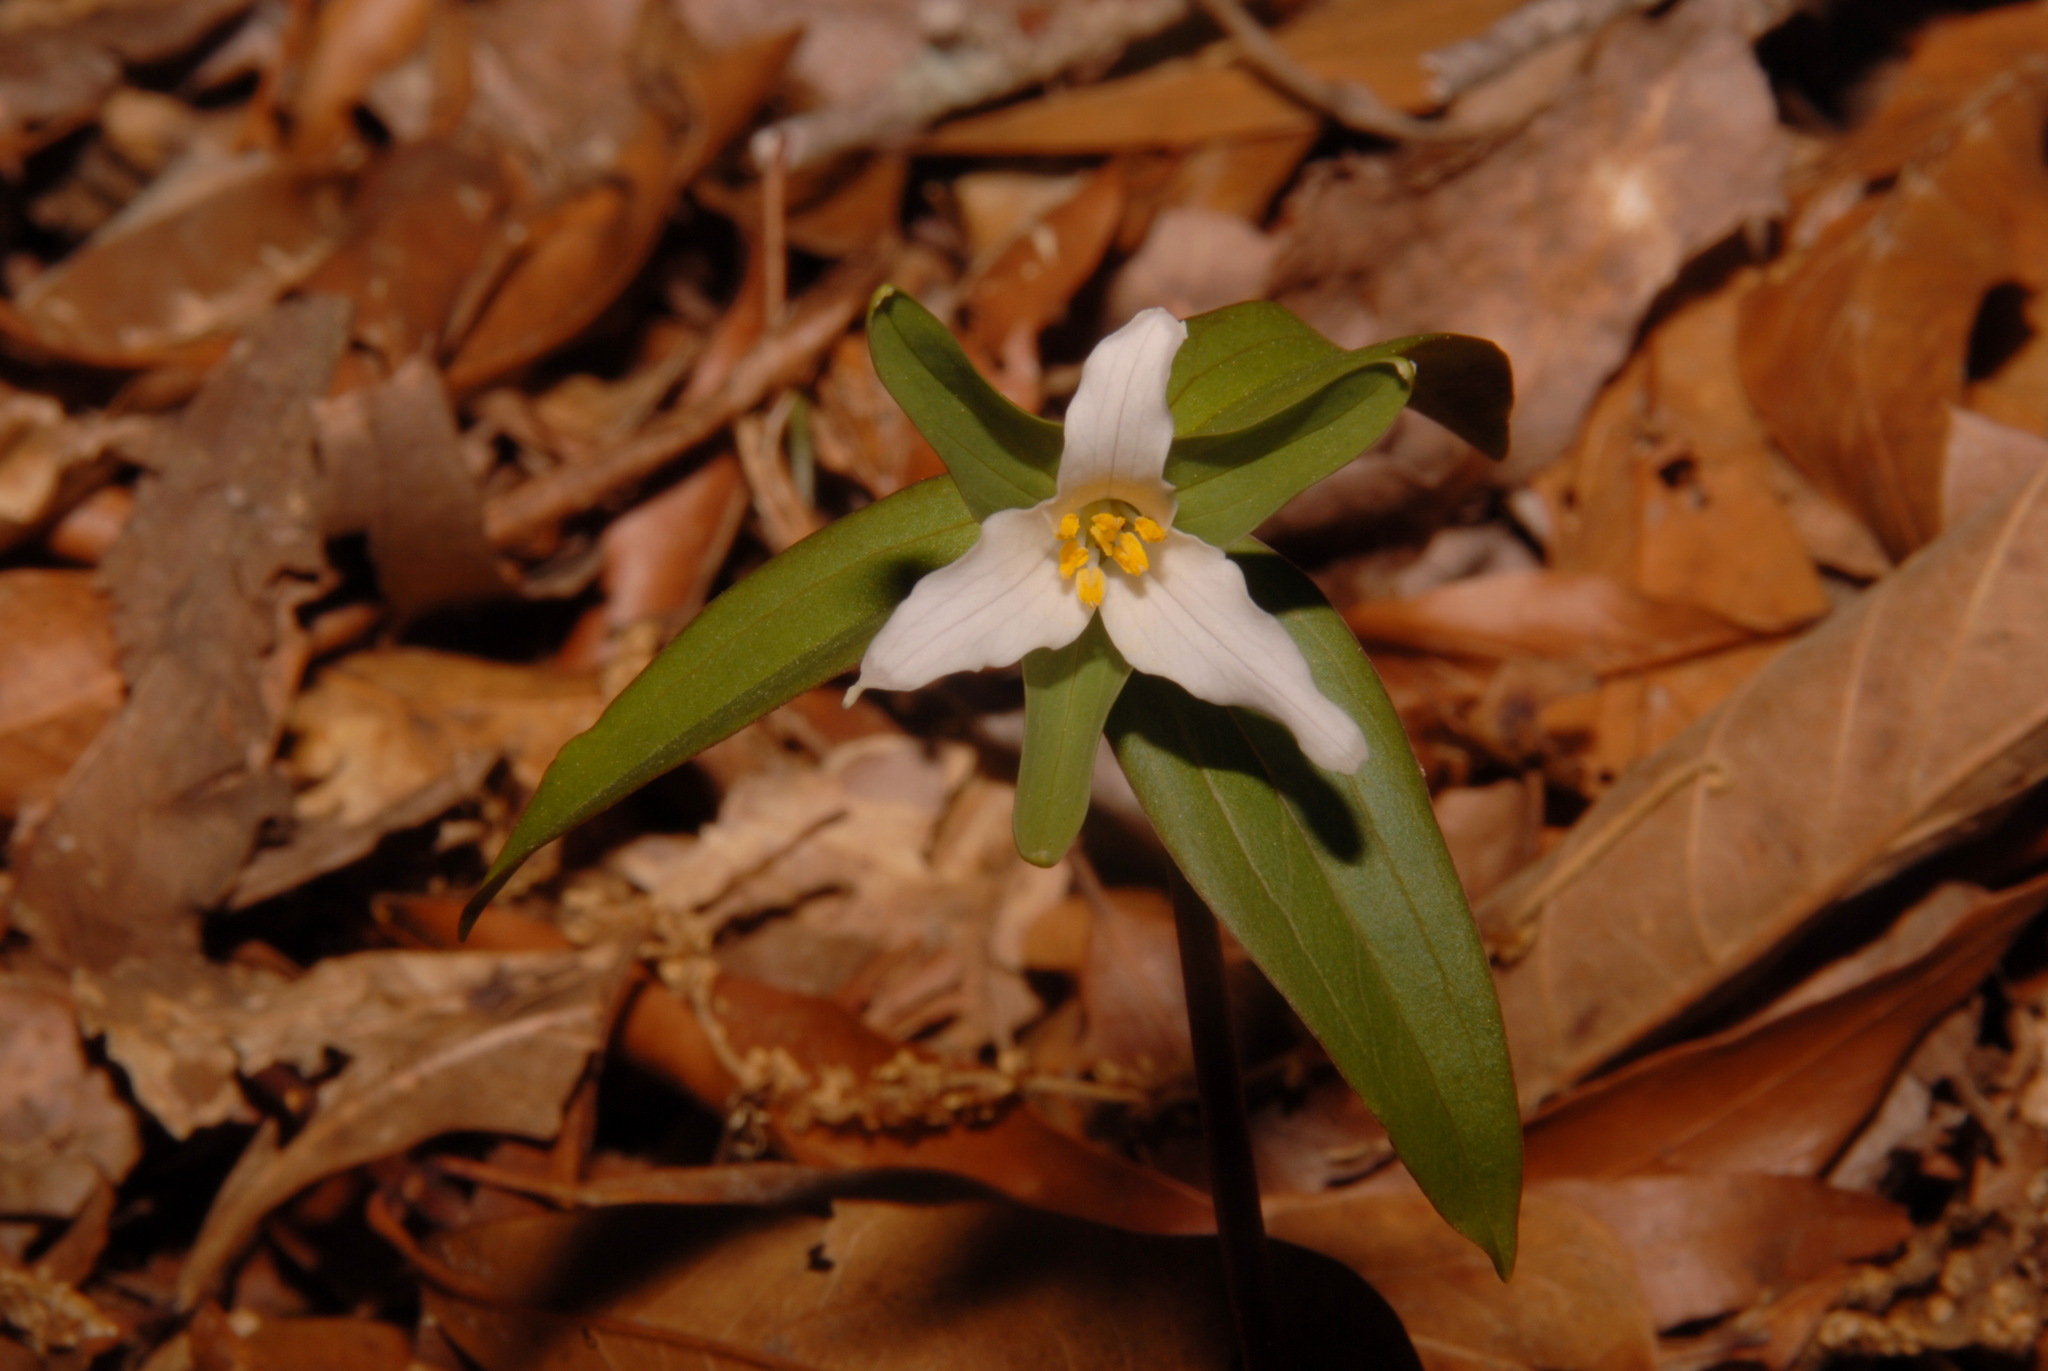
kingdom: Plantae
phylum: Tracheophyta
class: Liliopsida
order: Liliales
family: Melanthiaceae
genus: Trillium
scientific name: Trillium pusillum
